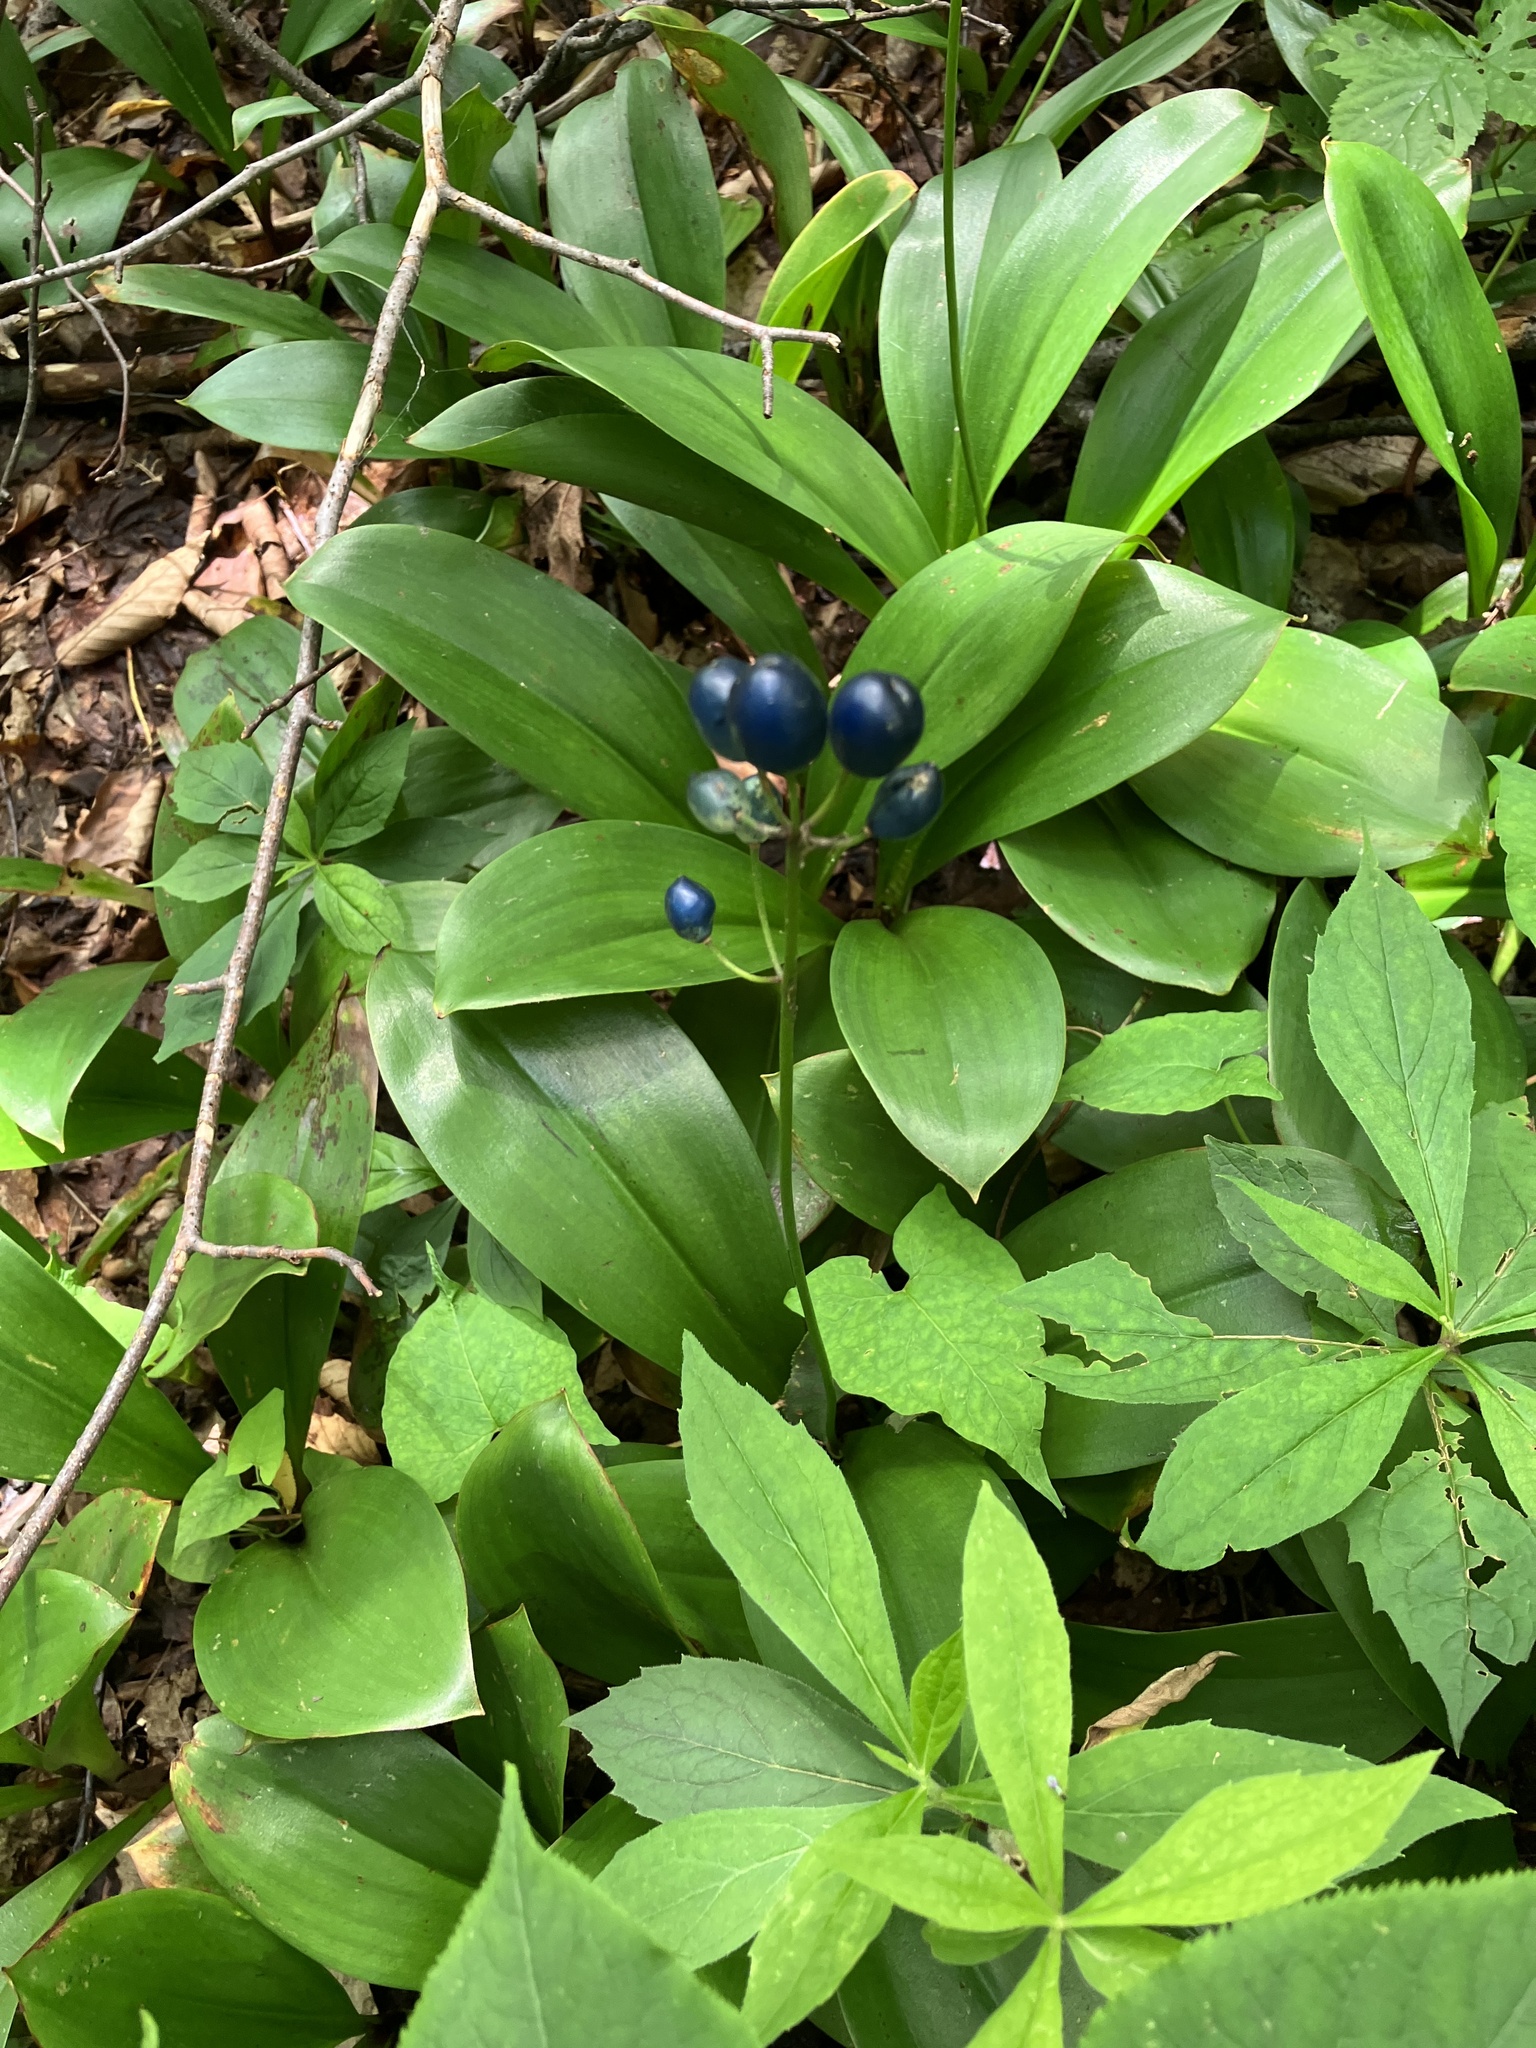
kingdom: Plantae
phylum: Tracheophyta
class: Liliopsida
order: Liliales
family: Liliaceae
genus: Clintonia
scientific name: Clintonia borealis
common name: Yellow clintonia
